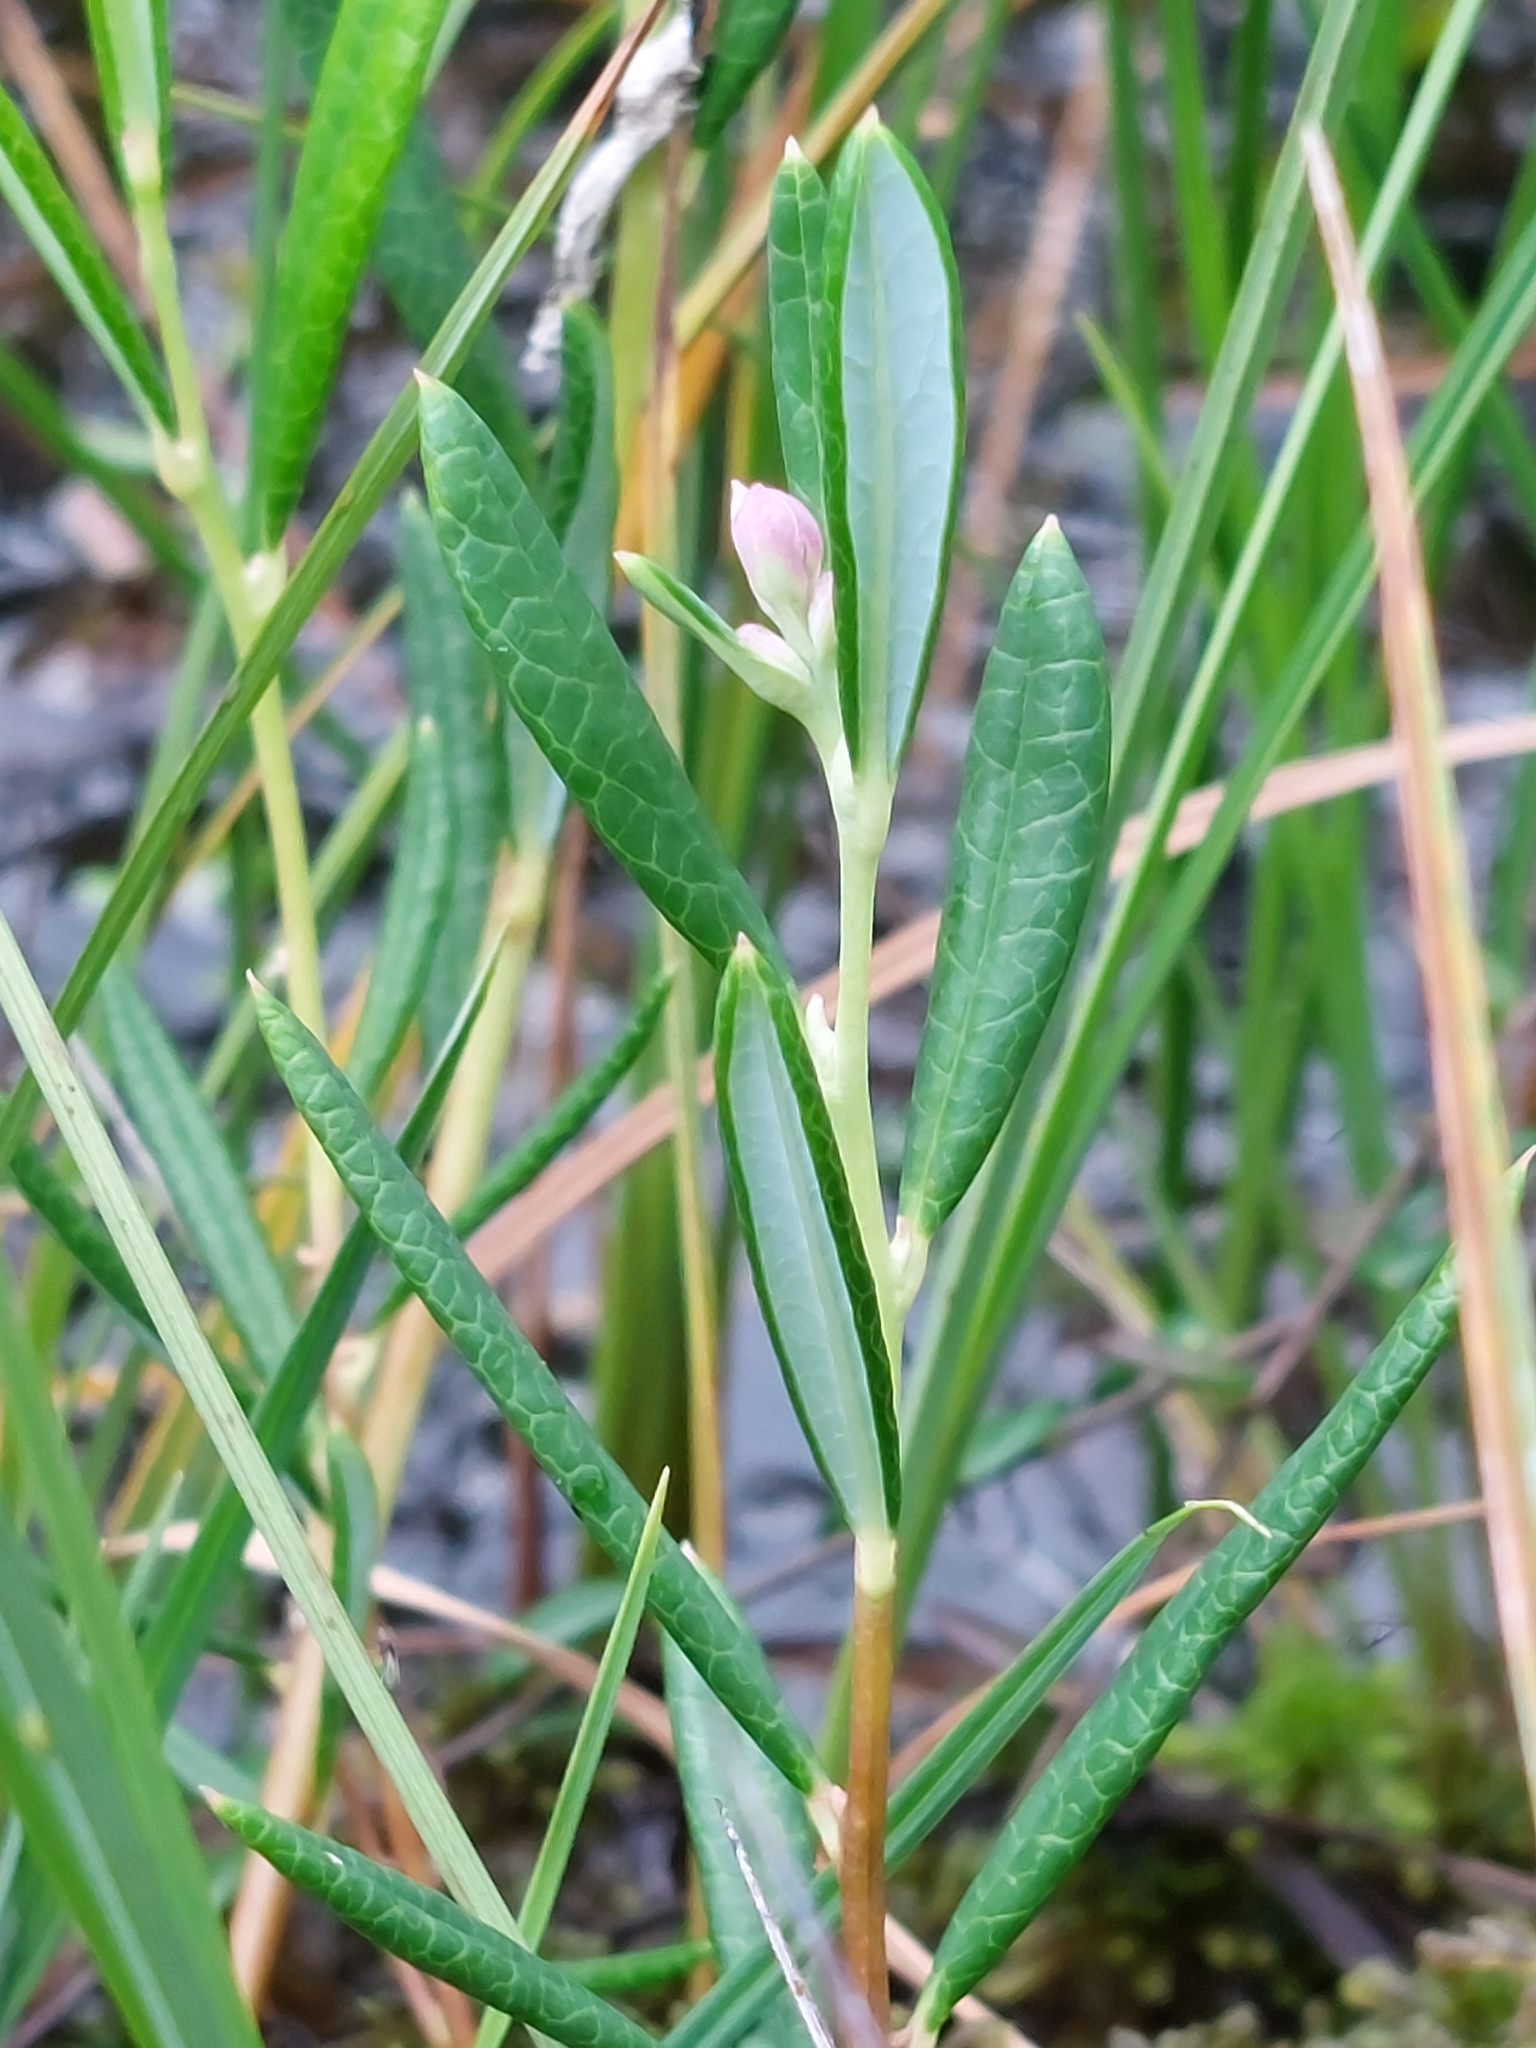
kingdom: Plantae
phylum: Tracheophyta
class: Magnoliopsida
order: Ericales
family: Ericaceae
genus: Andromeda
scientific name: Andromeda polifolia
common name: Bog-rosemary
